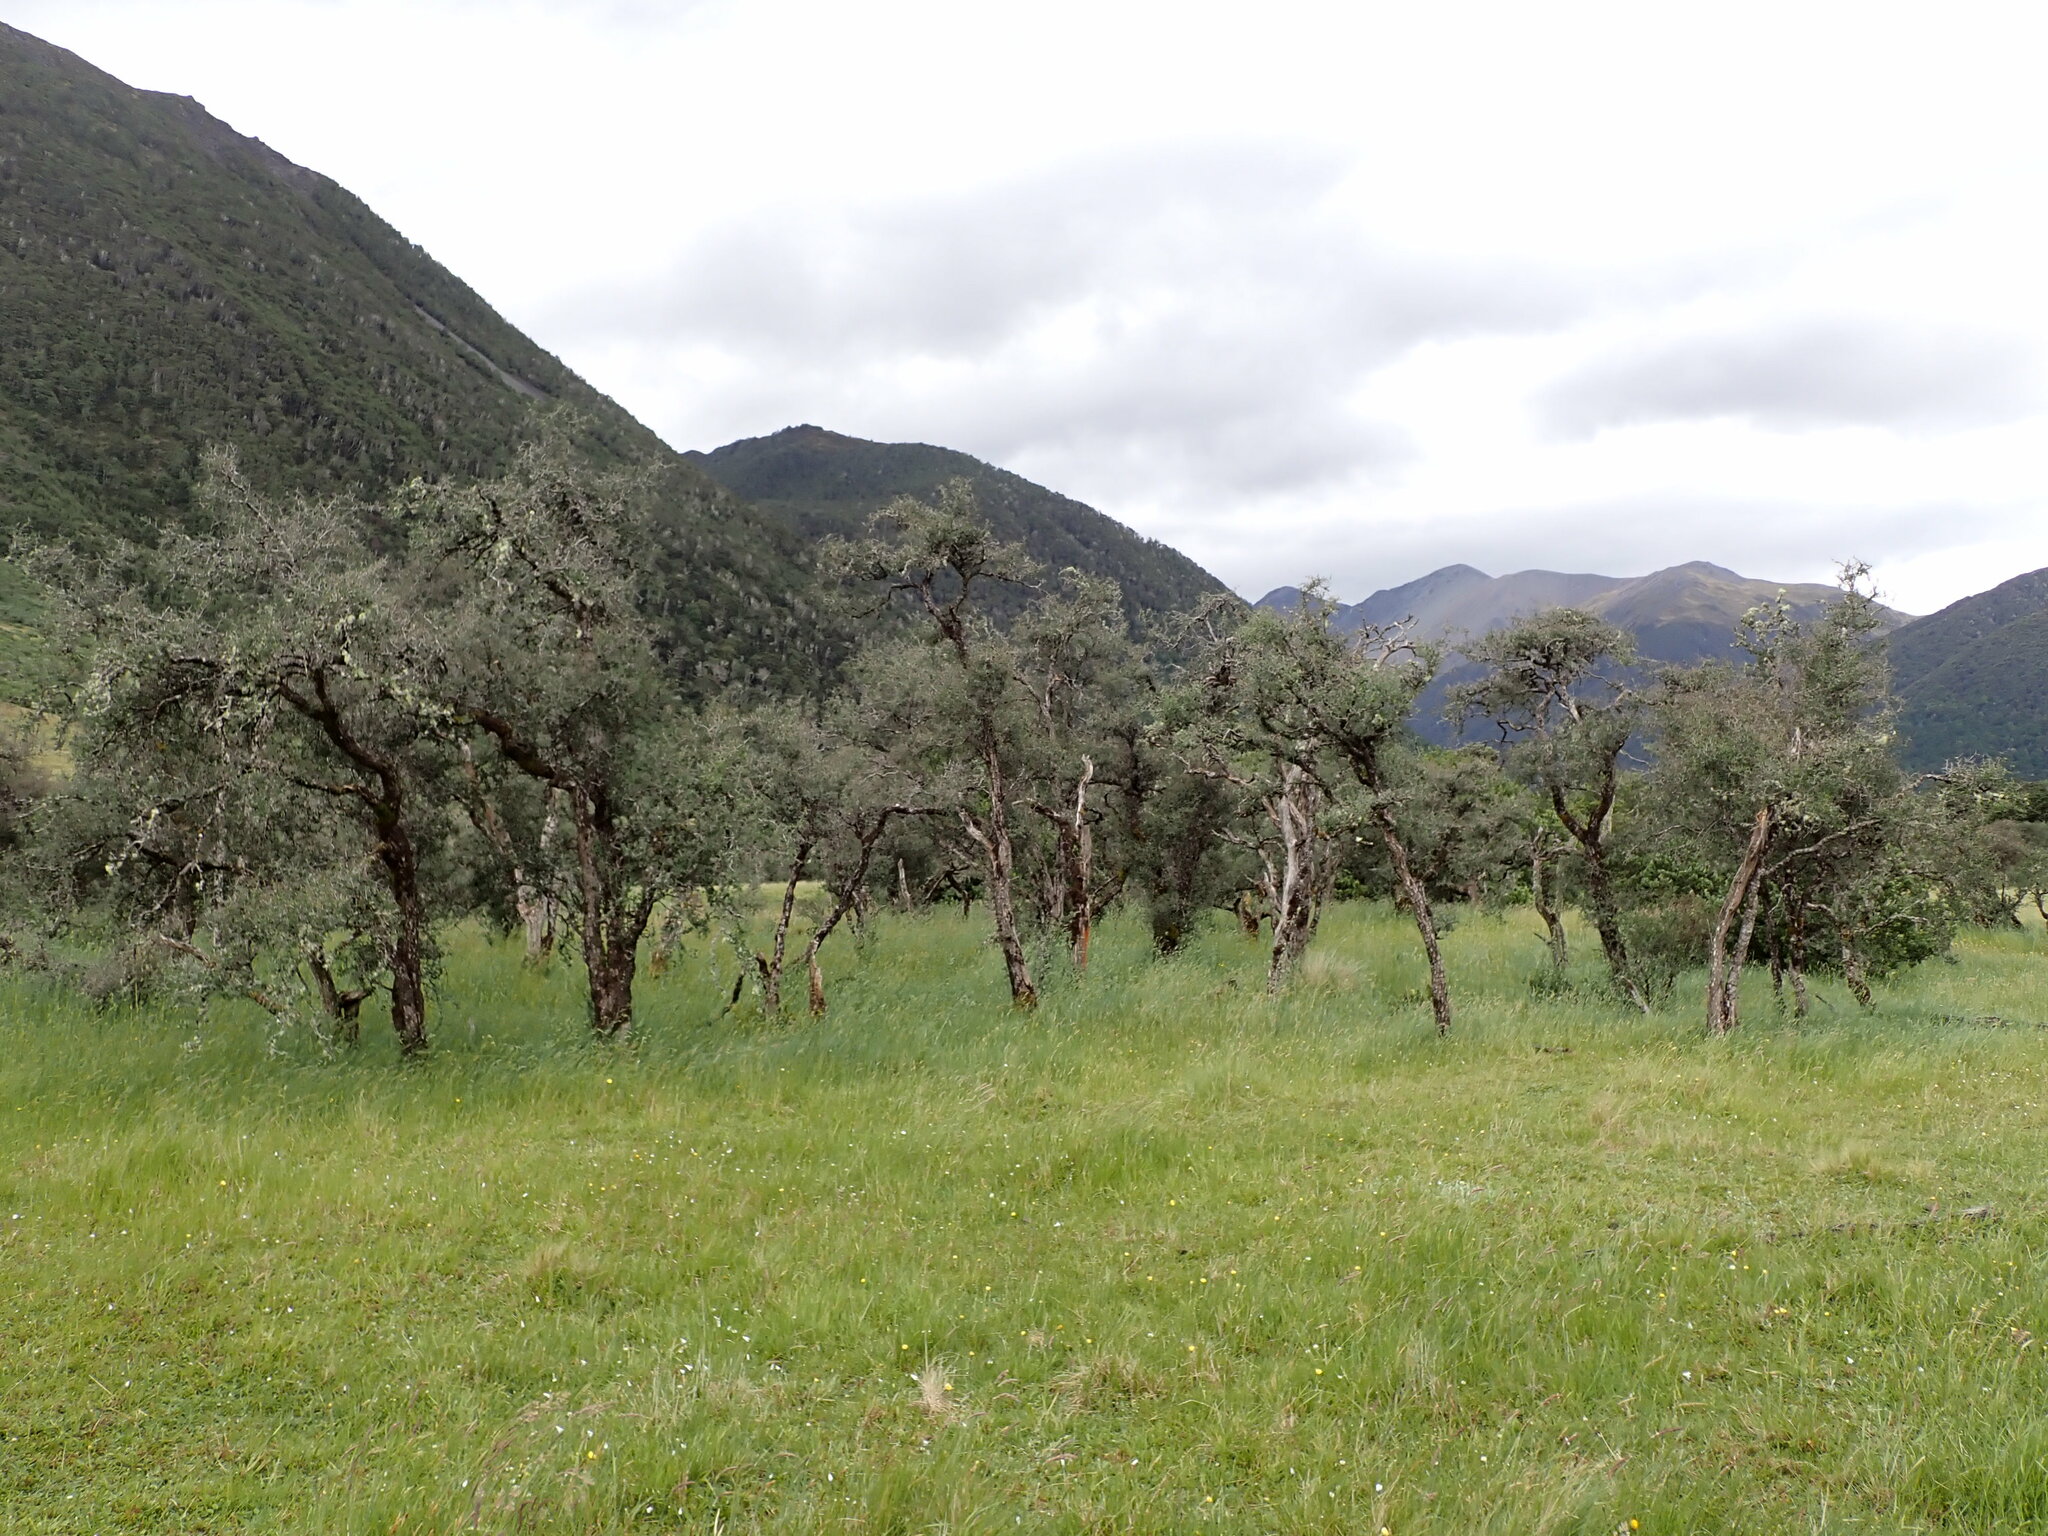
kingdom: Plantae
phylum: Tracheophyta
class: Magnoliopsida
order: Rosales
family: Rhamnaceae
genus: Discaria
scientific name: Discaria toumatou
